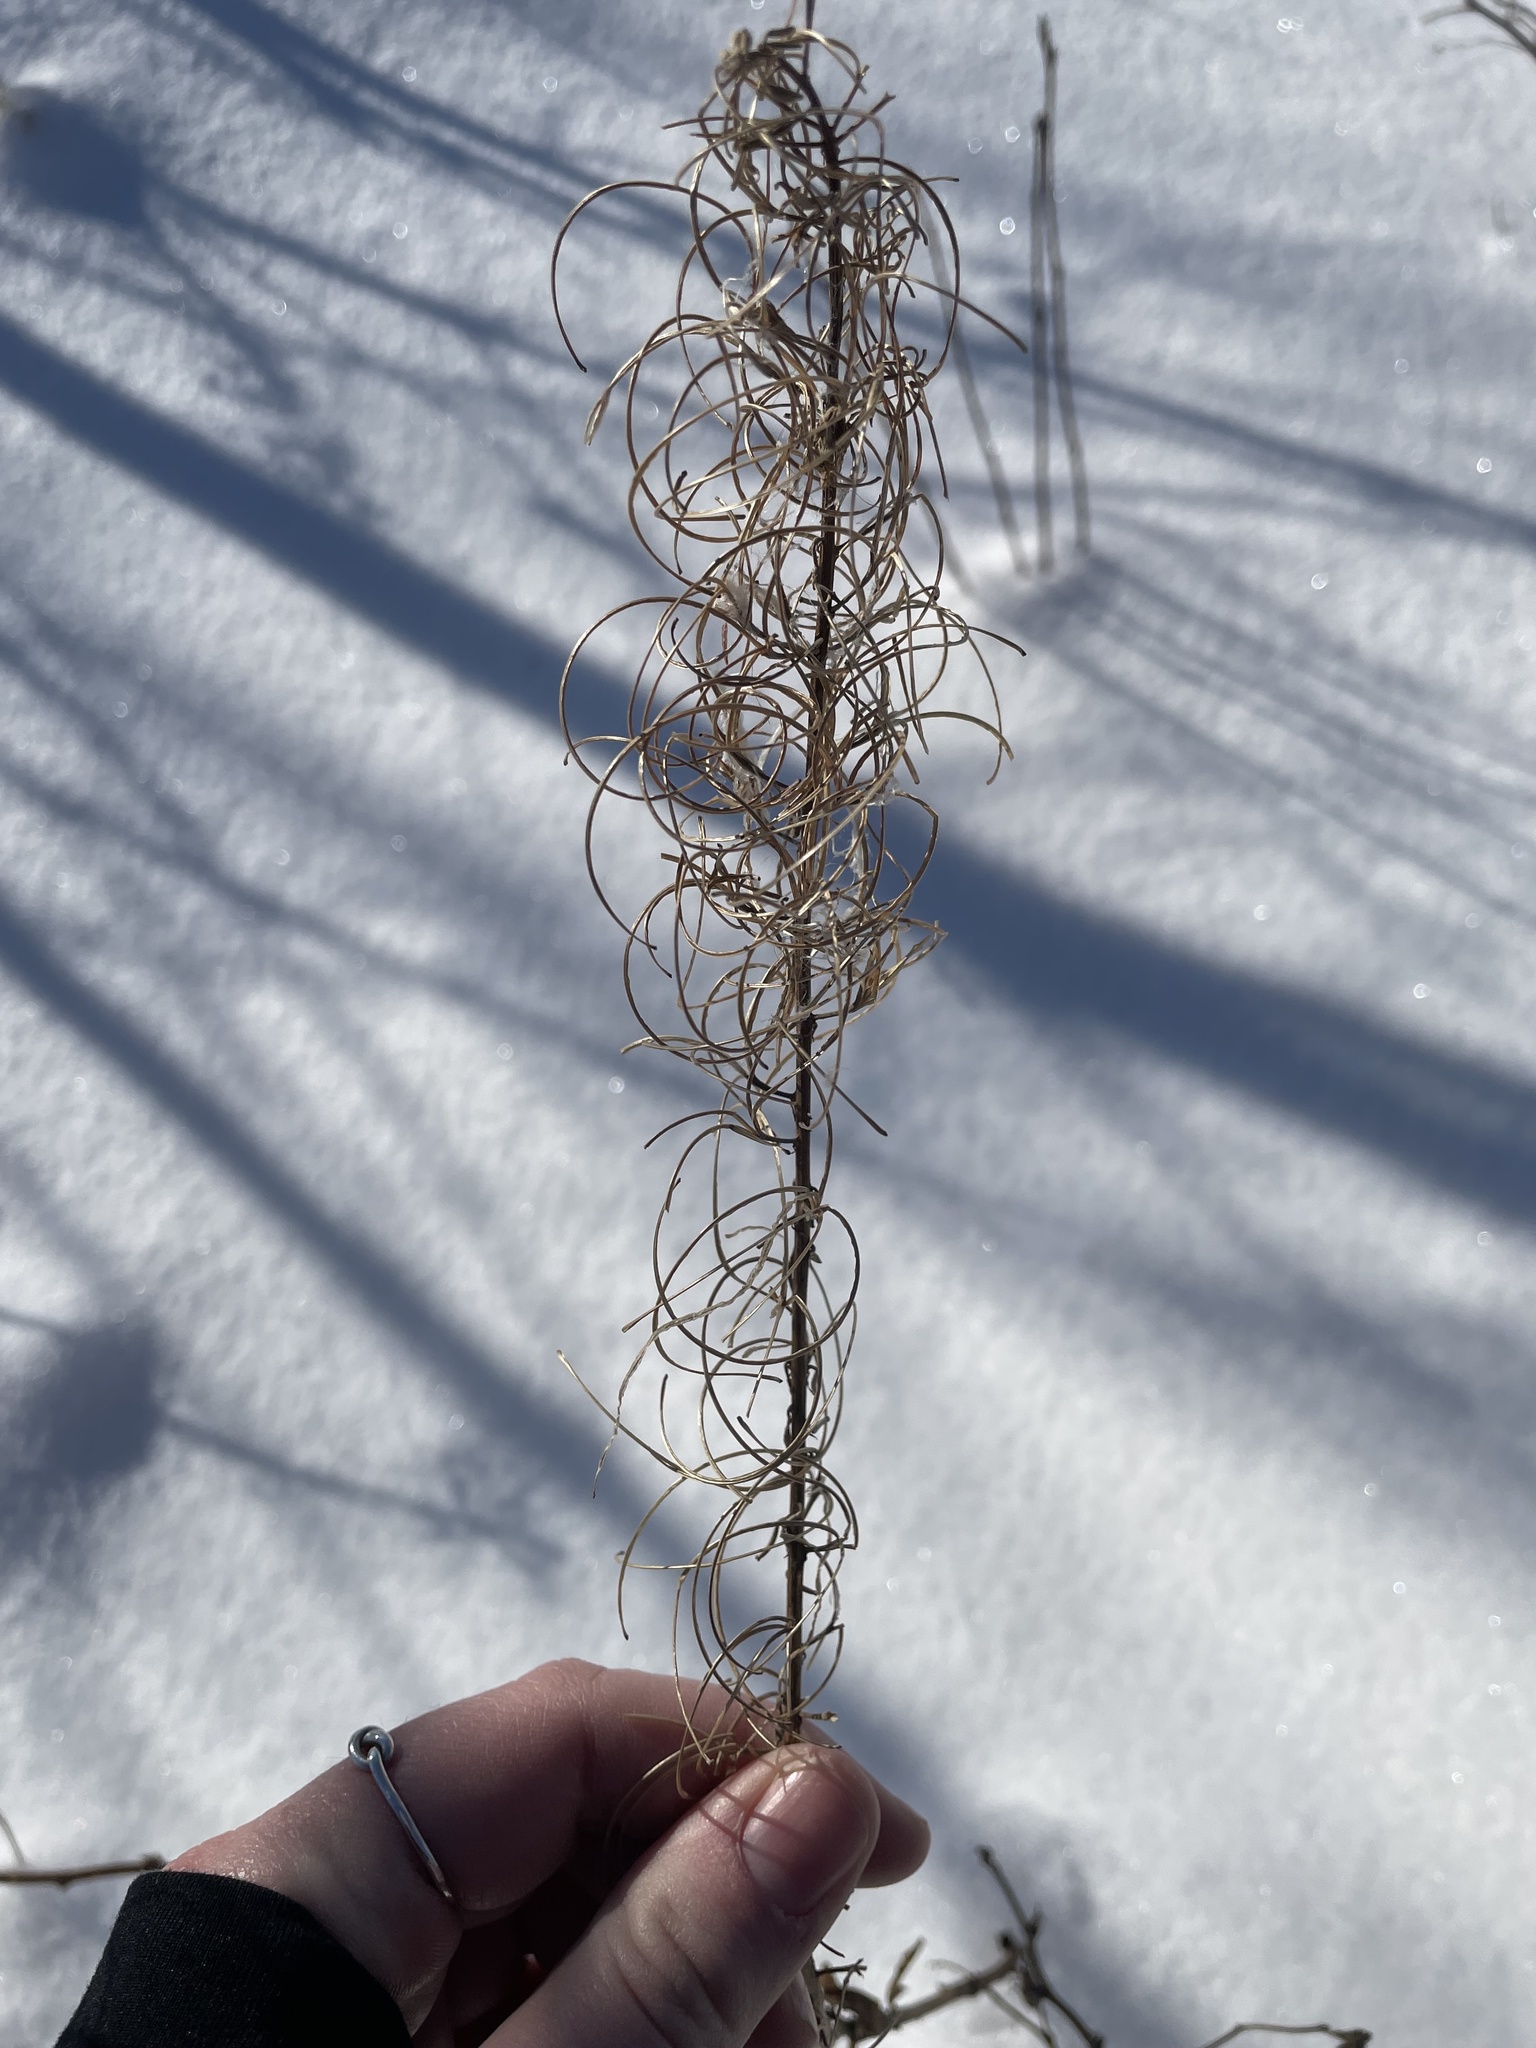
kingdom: Plantae
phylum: Tracheophyta
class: Magnoliopsida
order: Myrtales
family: Onagraceae
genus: Chamaenerion
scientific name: Chamaenerion angustifolium
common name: Fireweed
